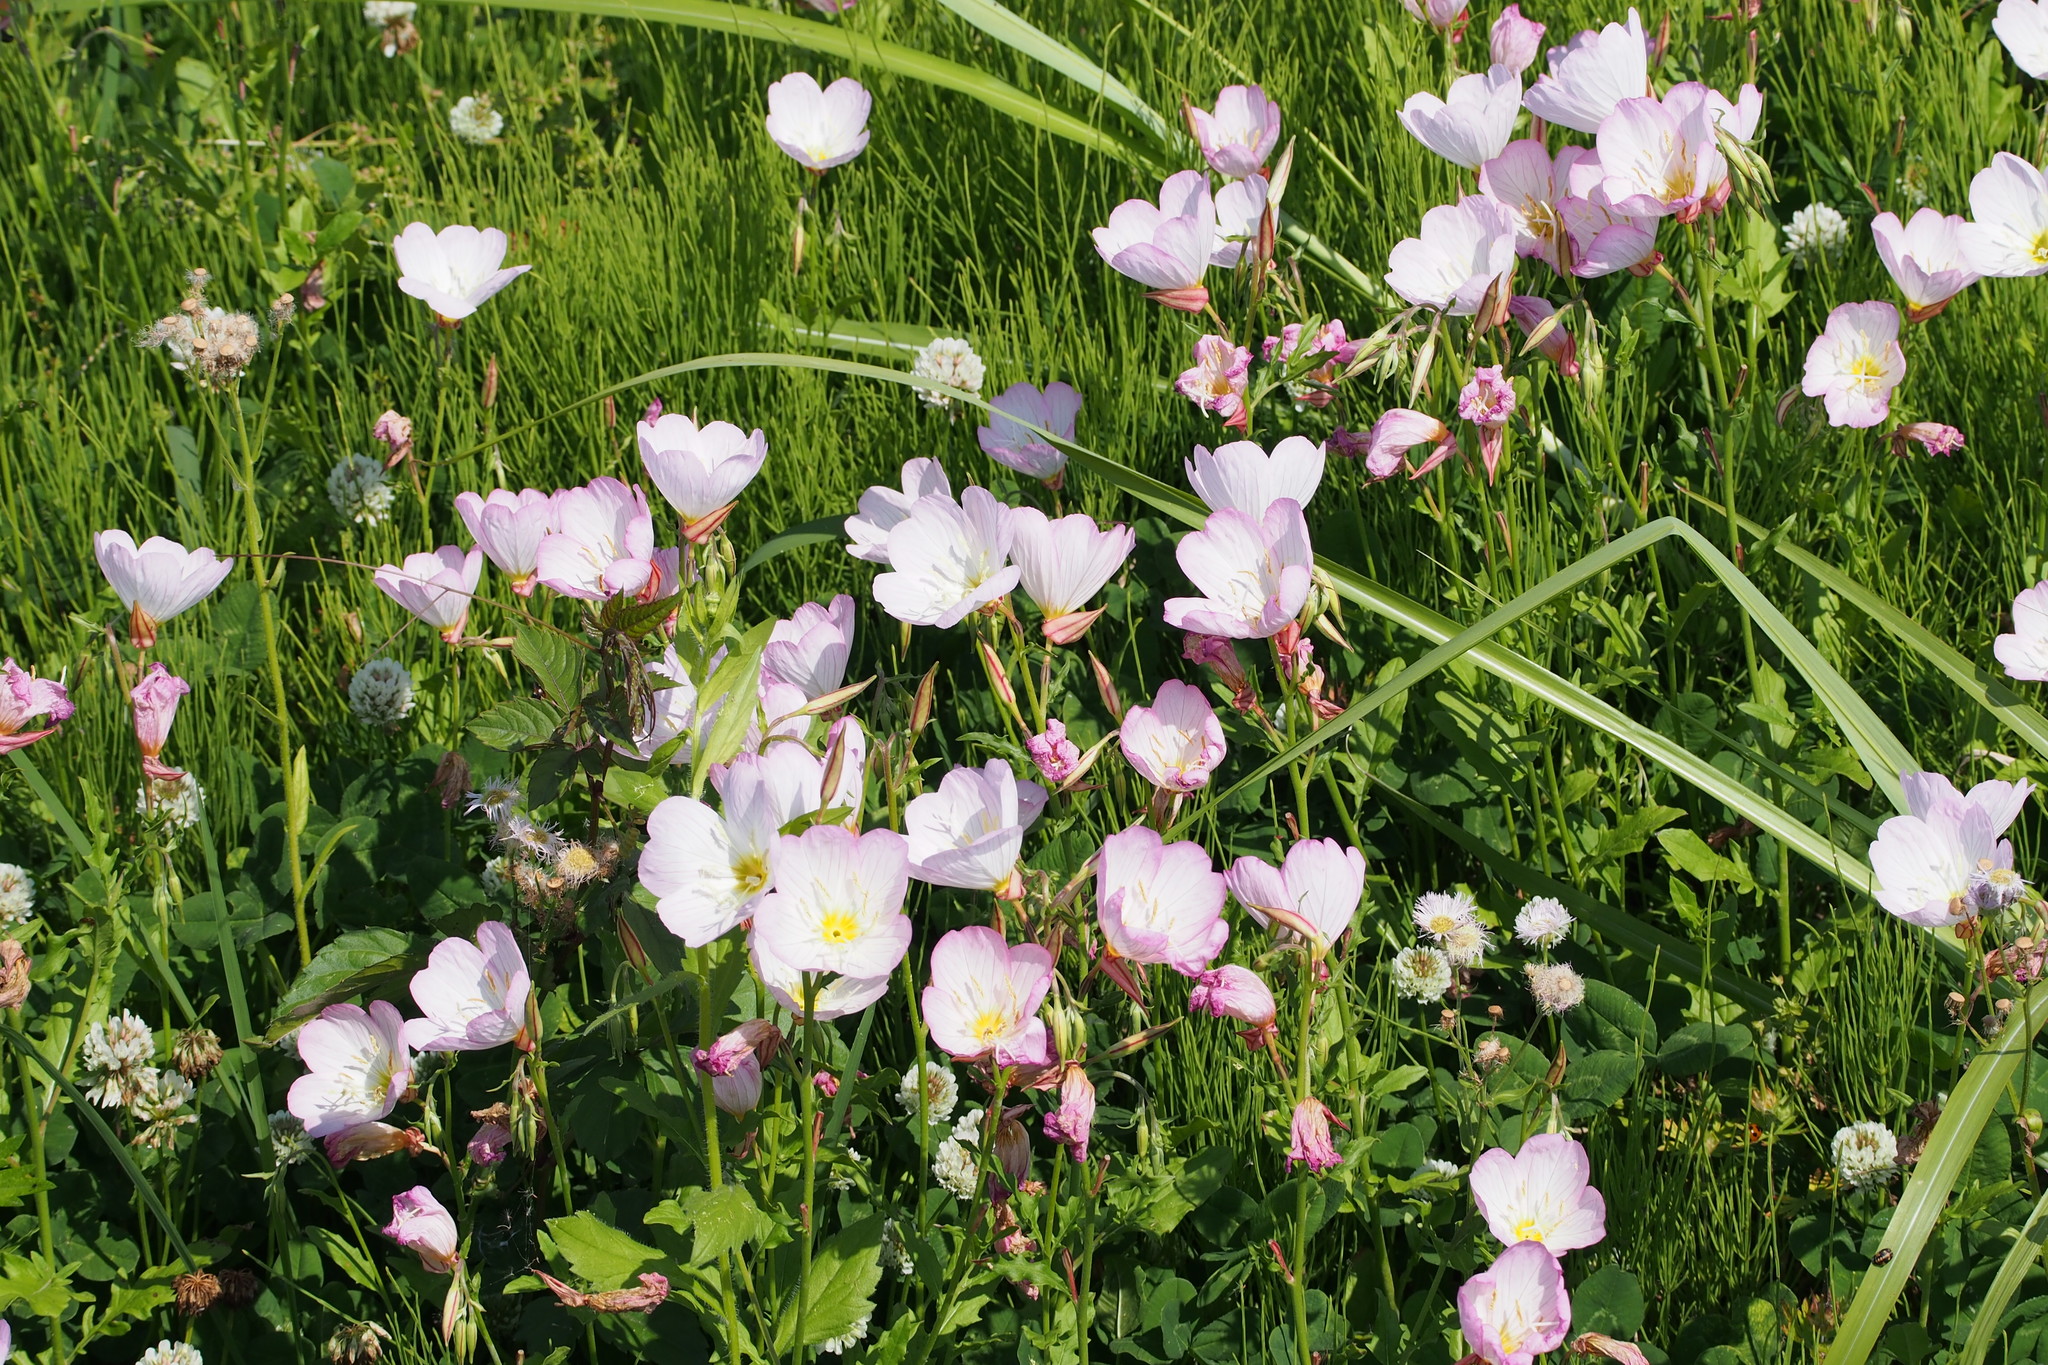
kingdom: Plantae
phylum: Tracheophyta
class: Magnoliopsida
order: Myrtales
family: Onagraceae
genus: Oenothera
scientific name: Oenothera speciosa
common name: White evening-primrose
